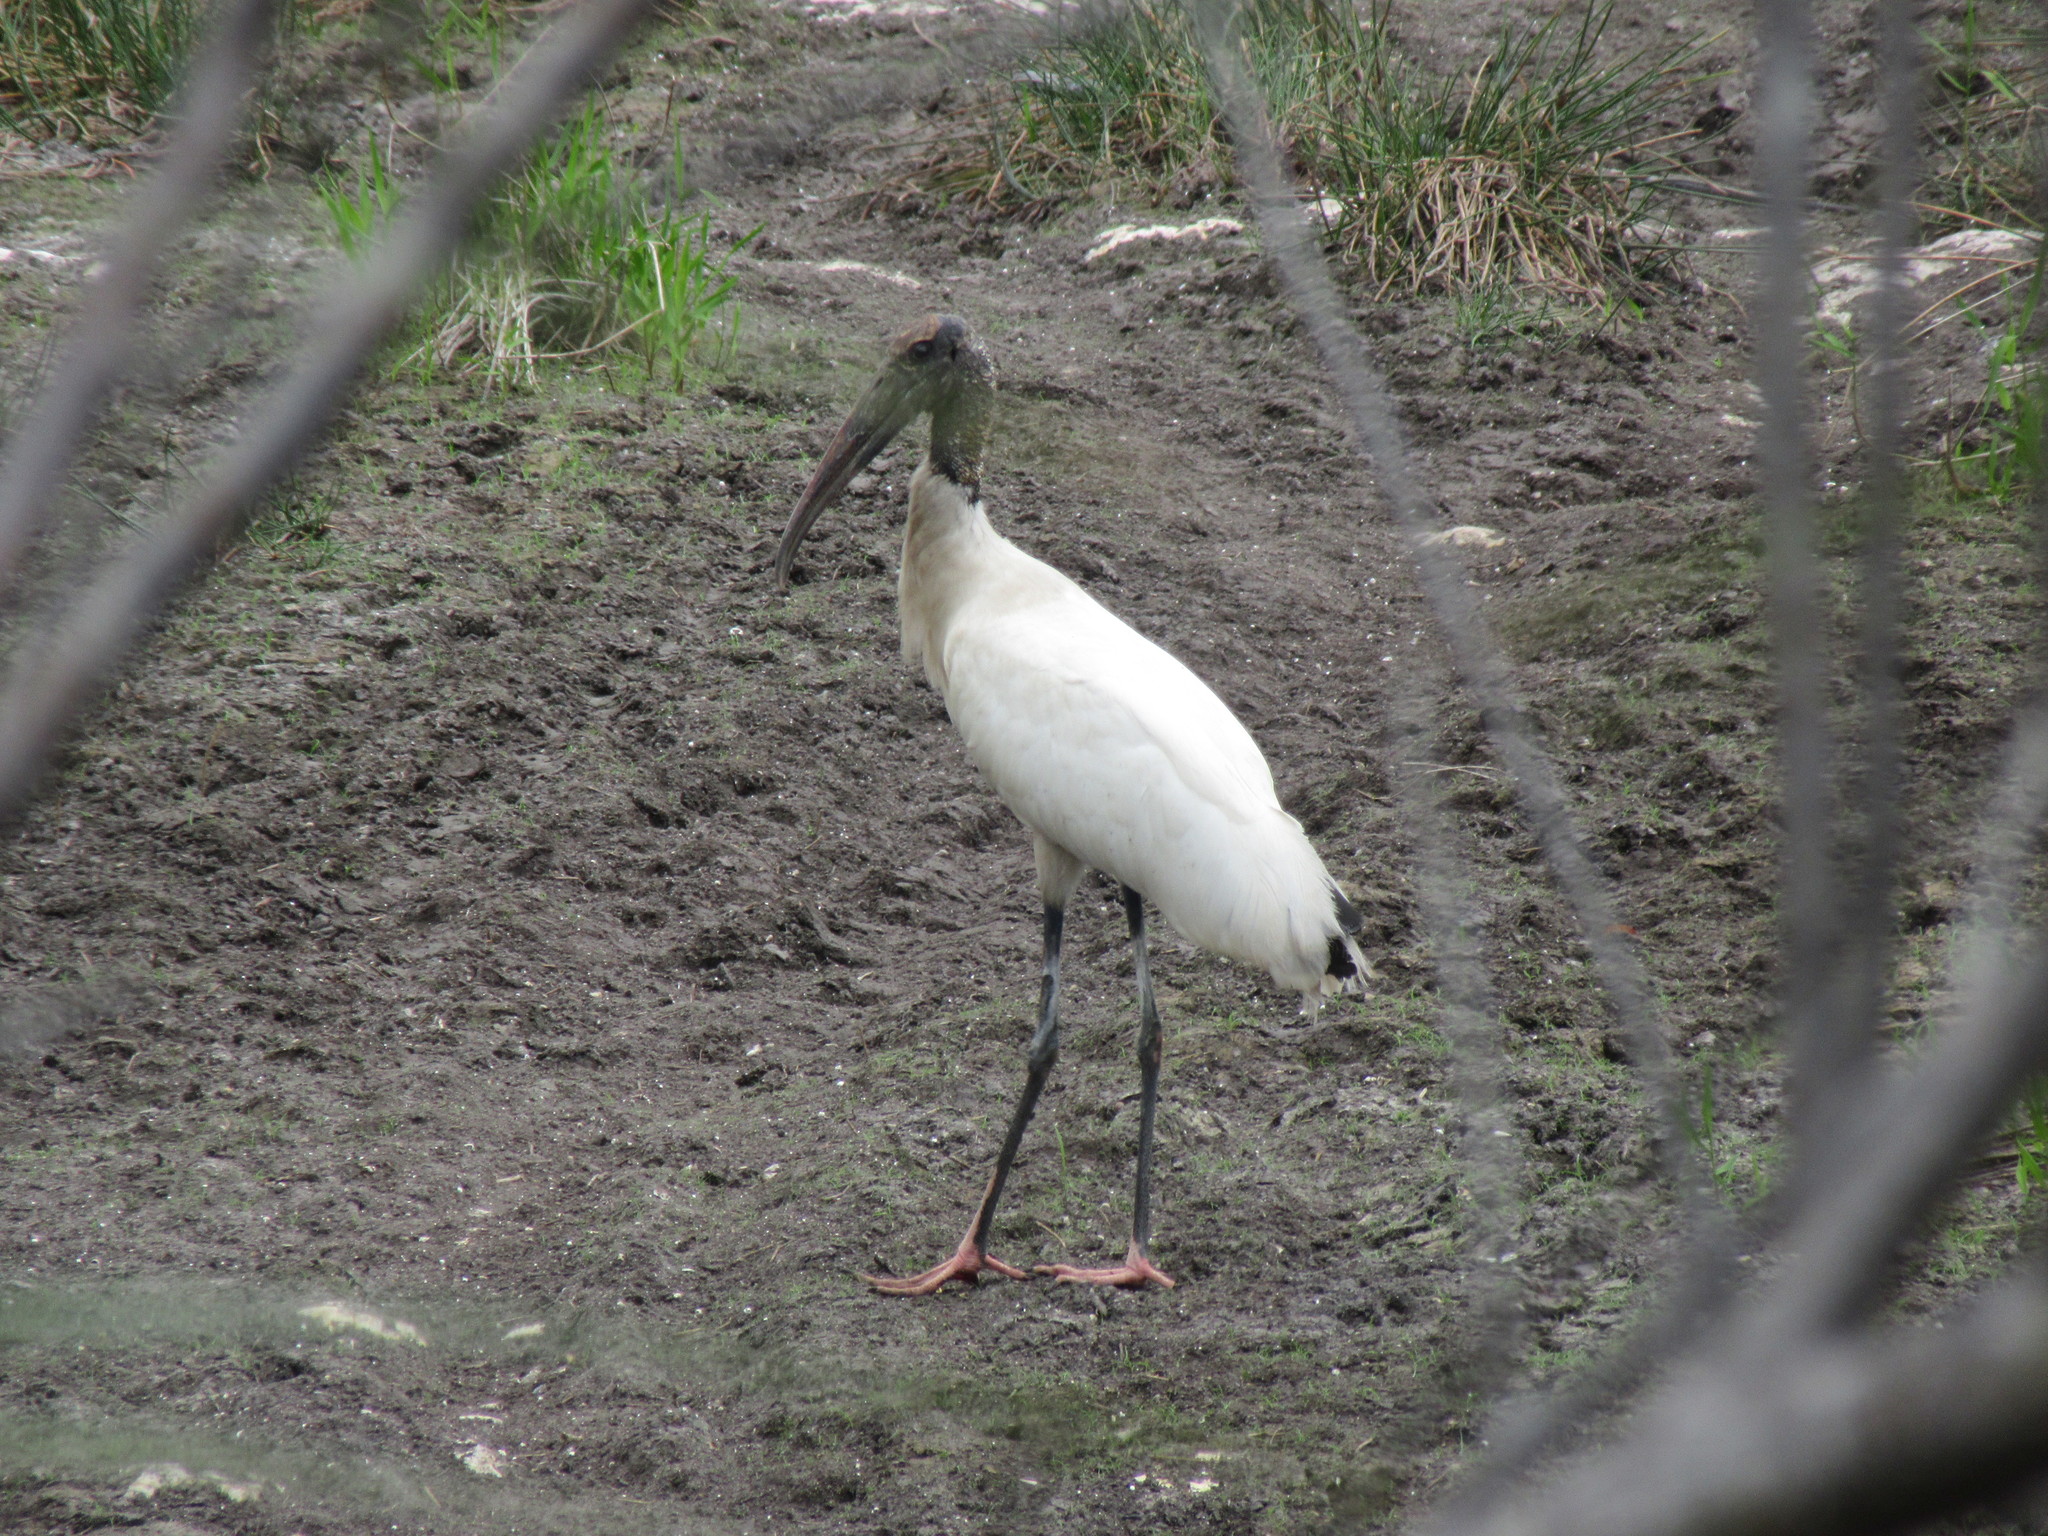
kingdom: Animalia
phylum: Chordata
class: Aves
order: Ciconiiformes
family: Ciconiidae
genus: Mycteria
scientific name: Mycteria americana
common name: Wood stork
